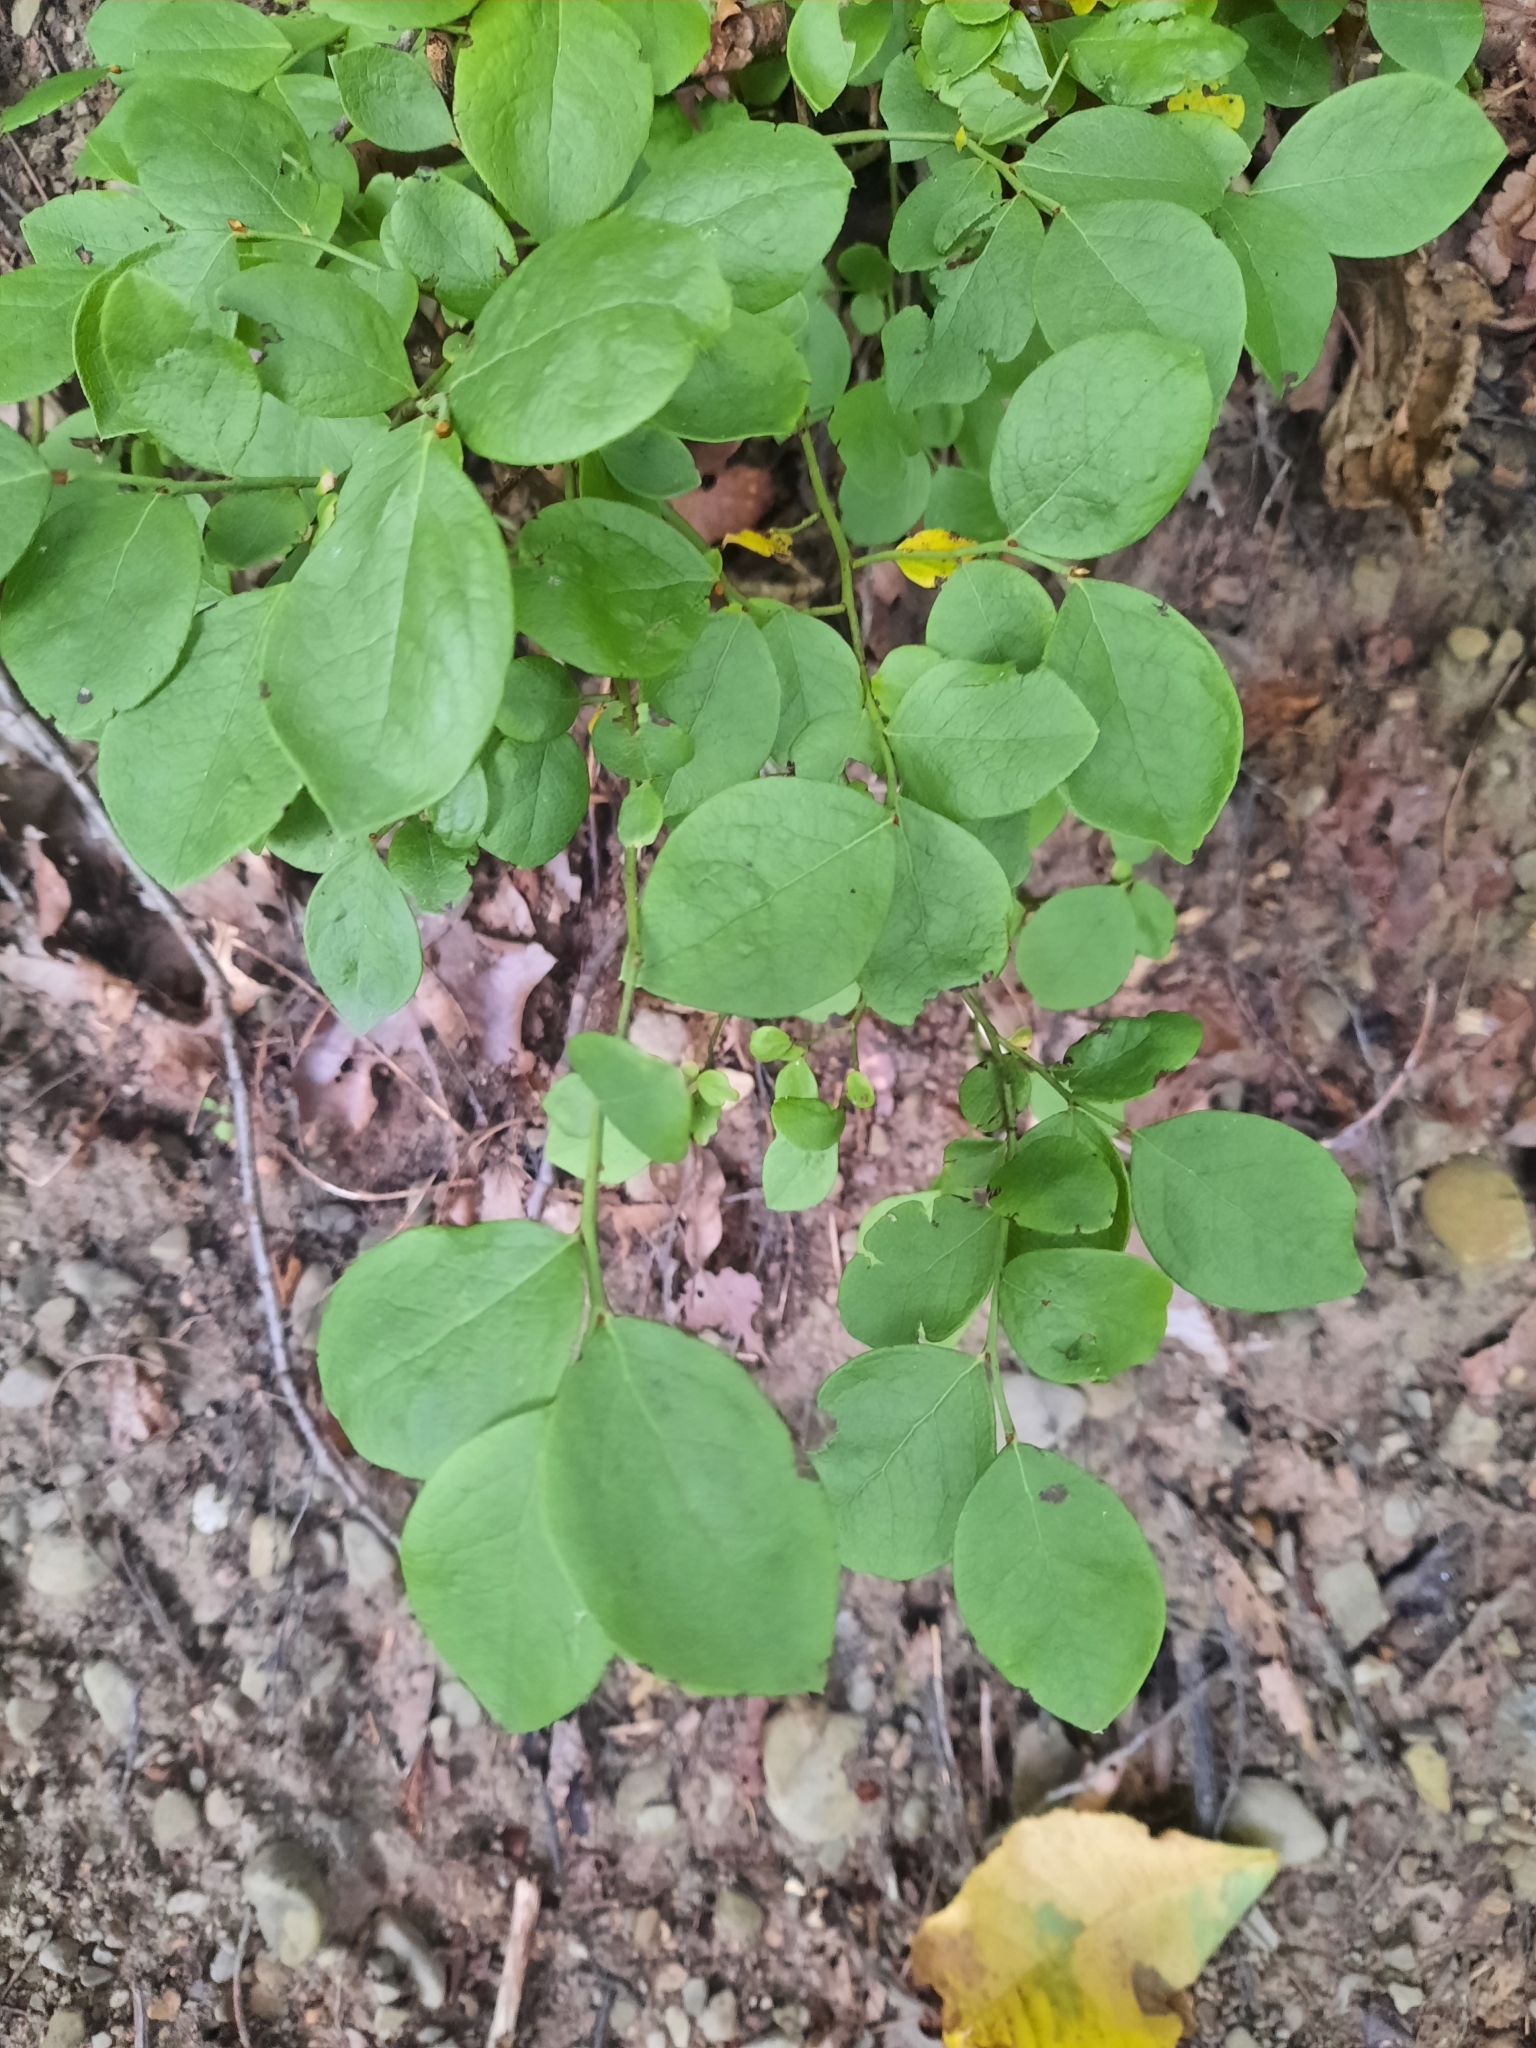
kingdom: Plantae
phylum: Tracheophyta
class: Magnoliopsida
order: Ericales
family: Ericaceae
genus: Vaccinium
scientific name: Vaccinium pallidum
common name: Blue ridge blueberry
